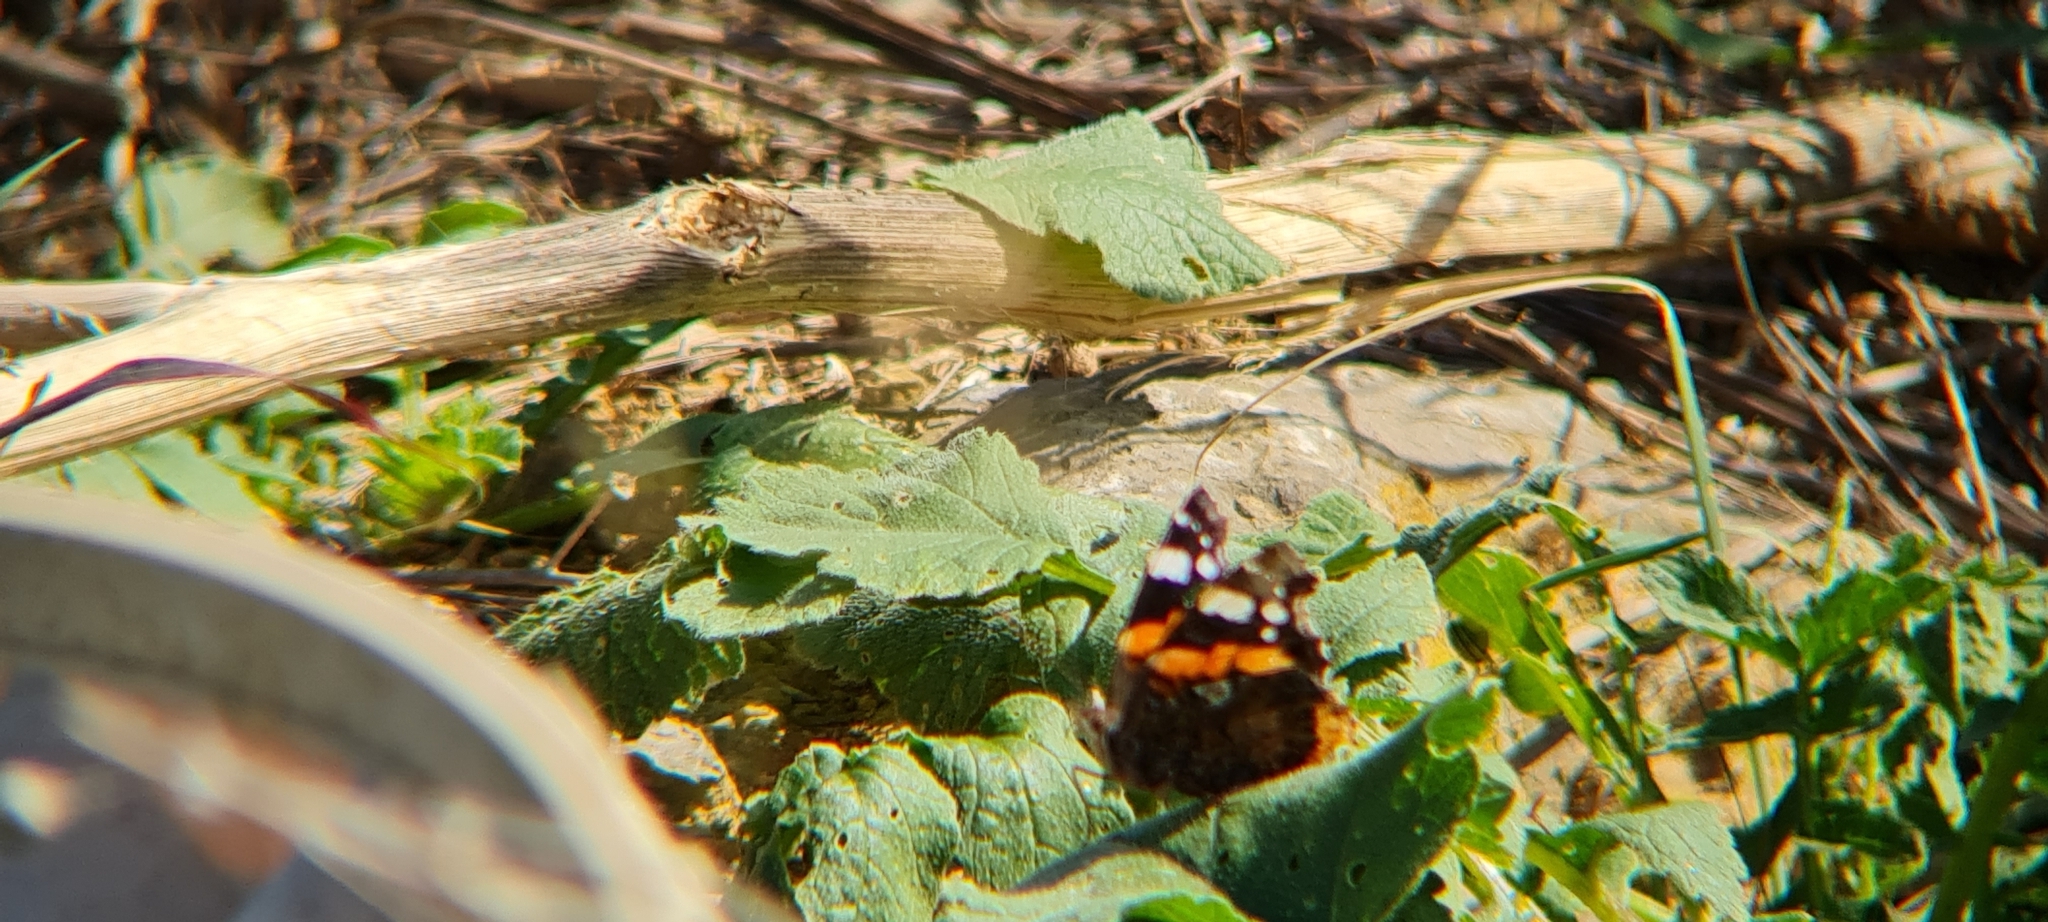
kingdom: Animalia
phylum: Arthropoda
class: Insecta
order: Lepidoptera
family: Nymphalidae
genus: Vanessa
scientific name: Vanessa atalanta
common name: Red admiral
